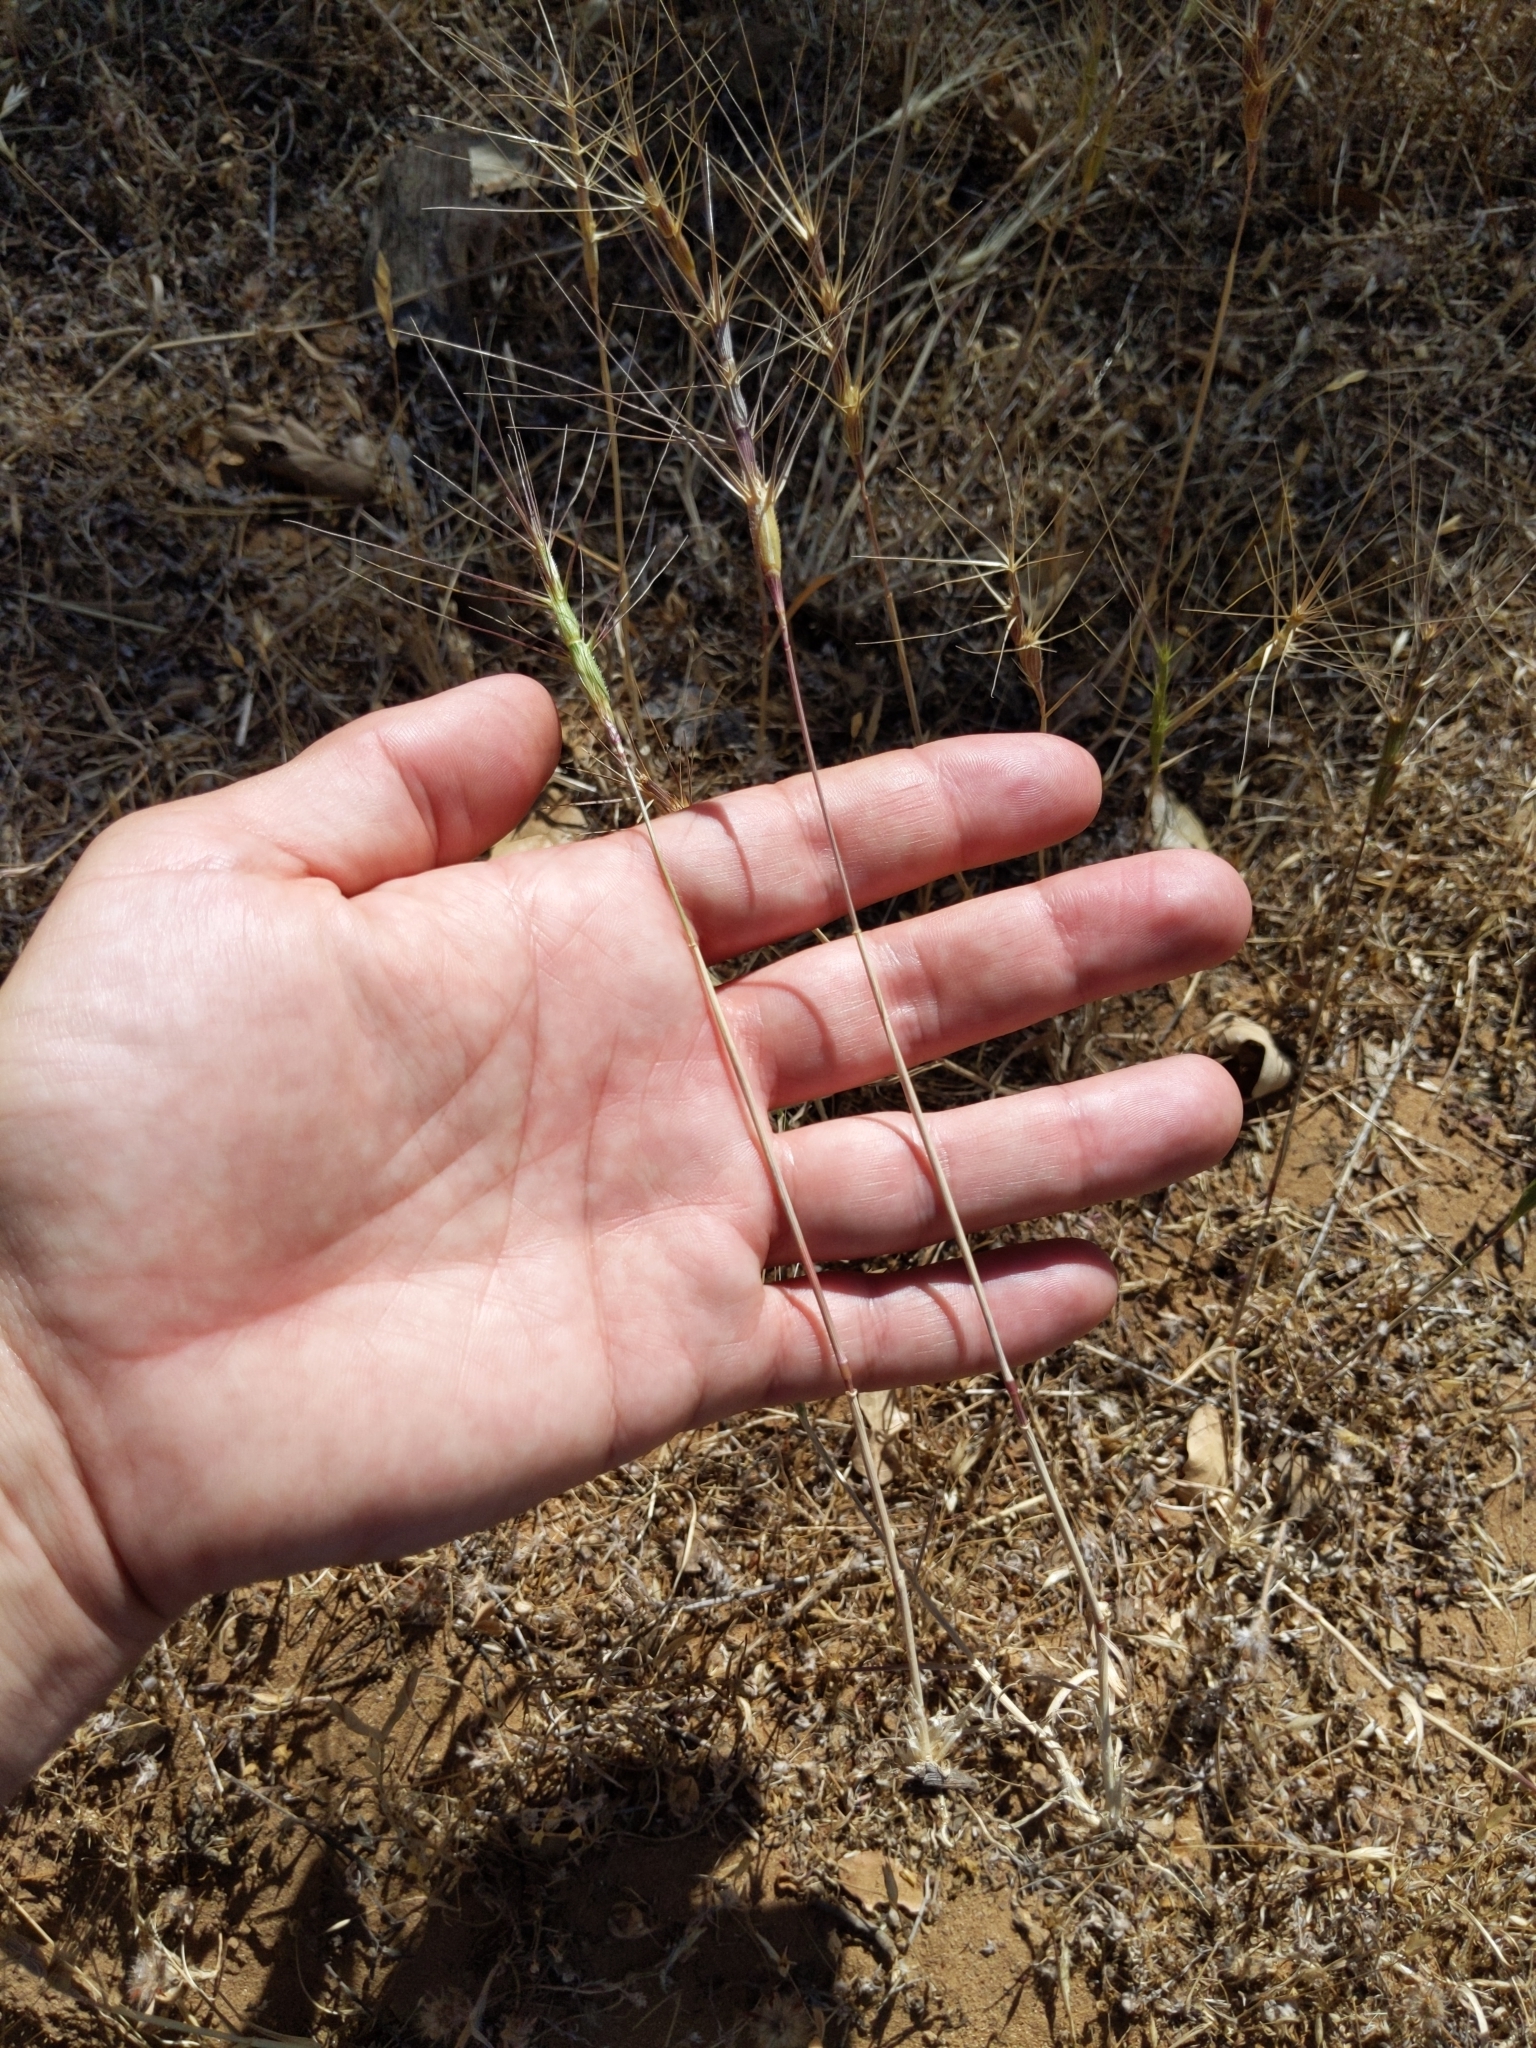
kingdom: Plantae
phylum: Tracheophyta
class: Liliopsida
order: Poales
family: Poaceae
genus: Aegilops
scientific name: Aegilops triuncialis
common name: Barb goat grass
